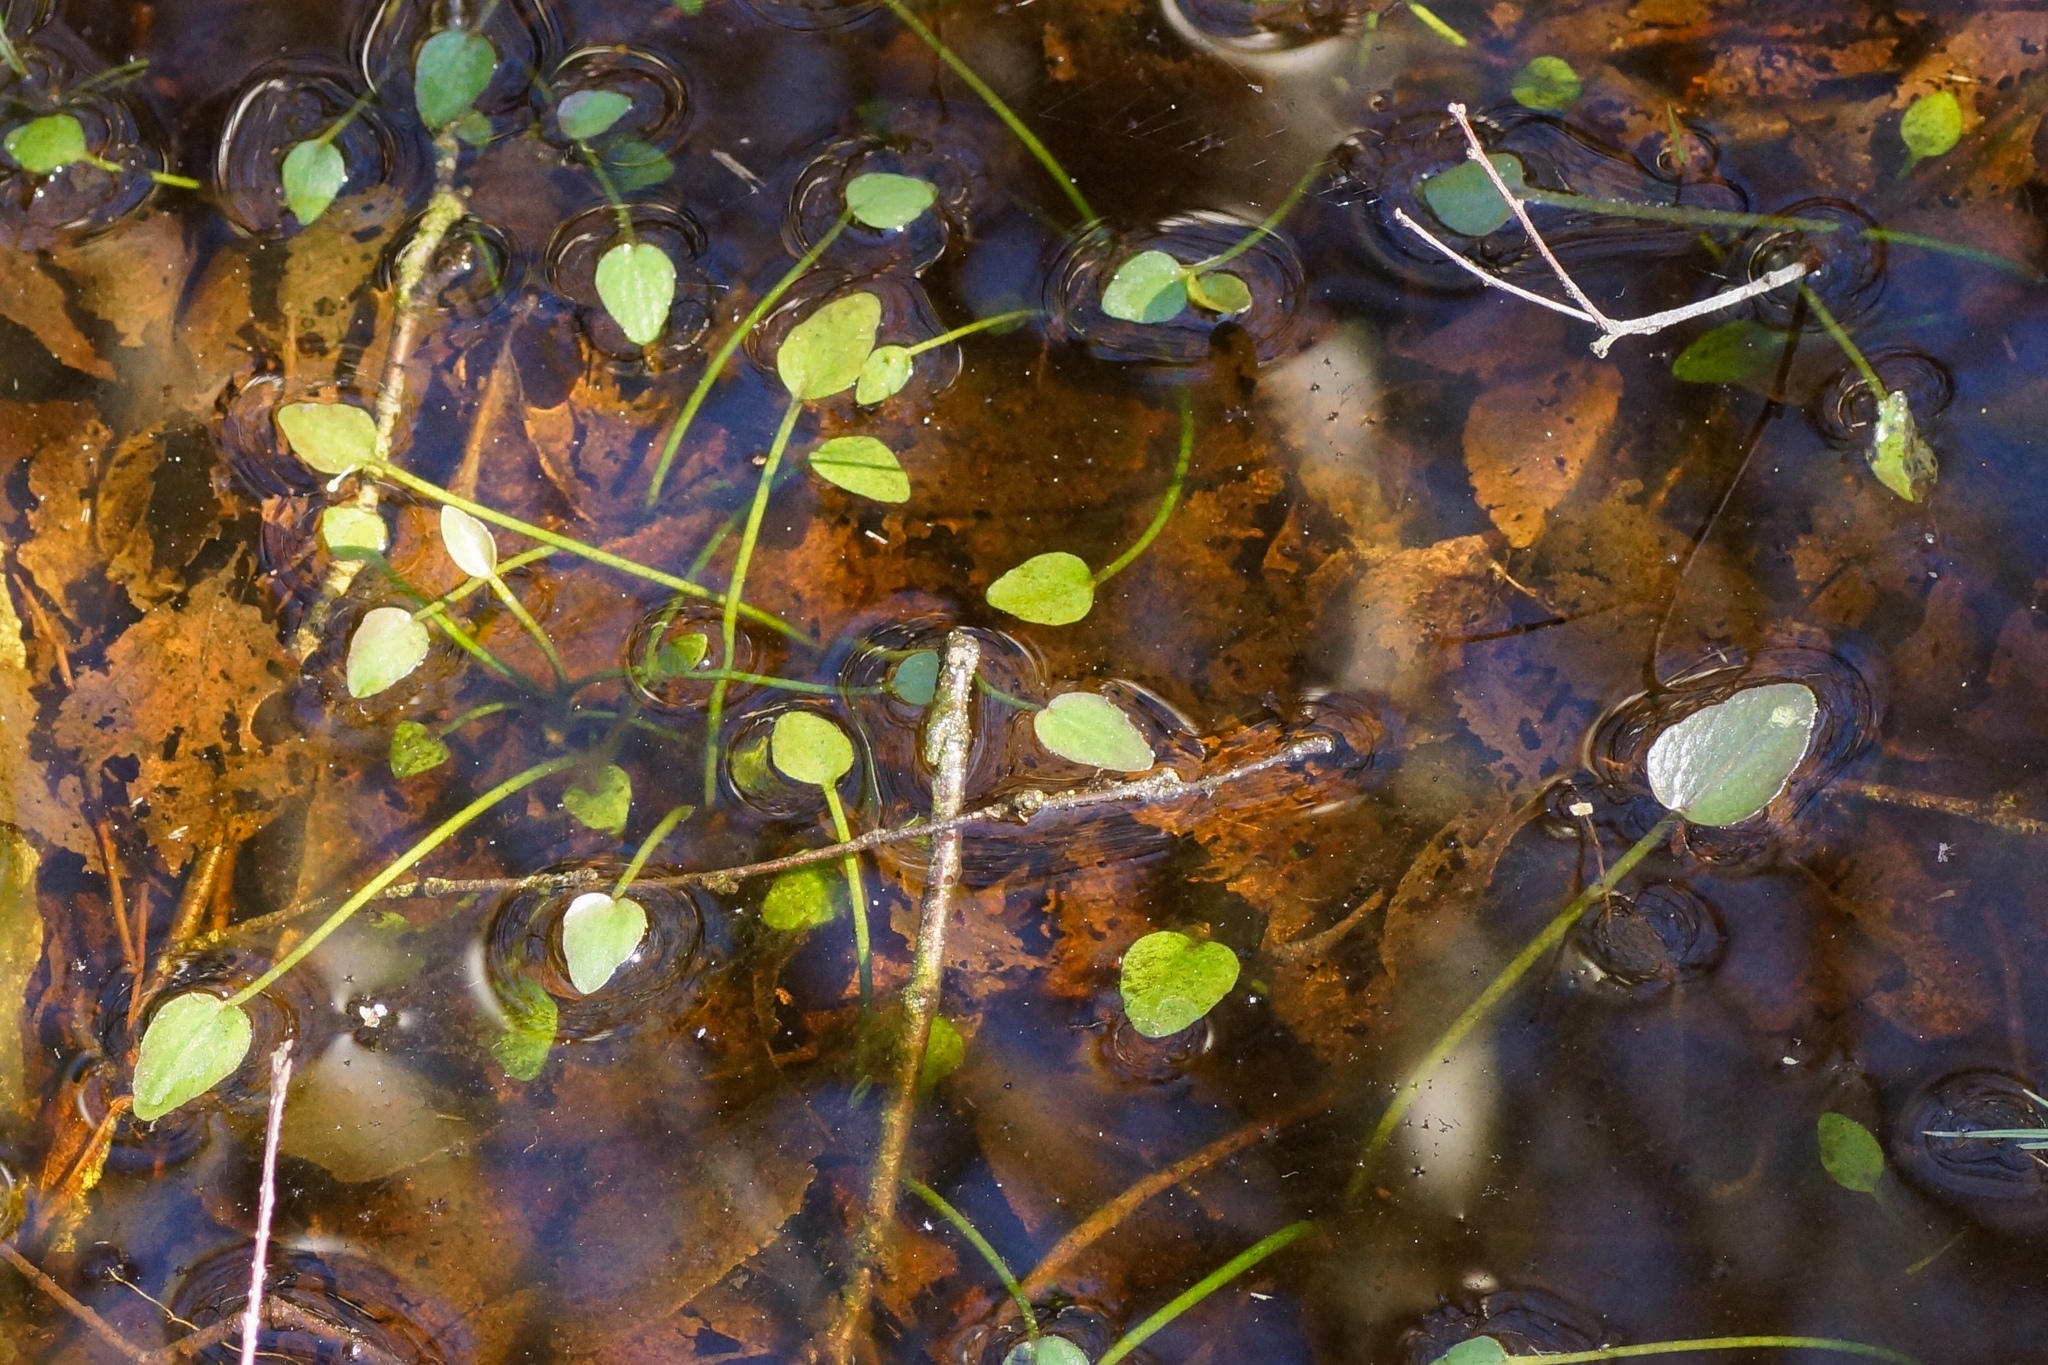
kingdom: Plantae
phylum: Tracheophyta
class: Magnoliopsida
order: Ranunculales
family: Ranunculaceae
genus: Ranunculus
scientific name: Ranunculus flammula
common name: Lesser spearwort
